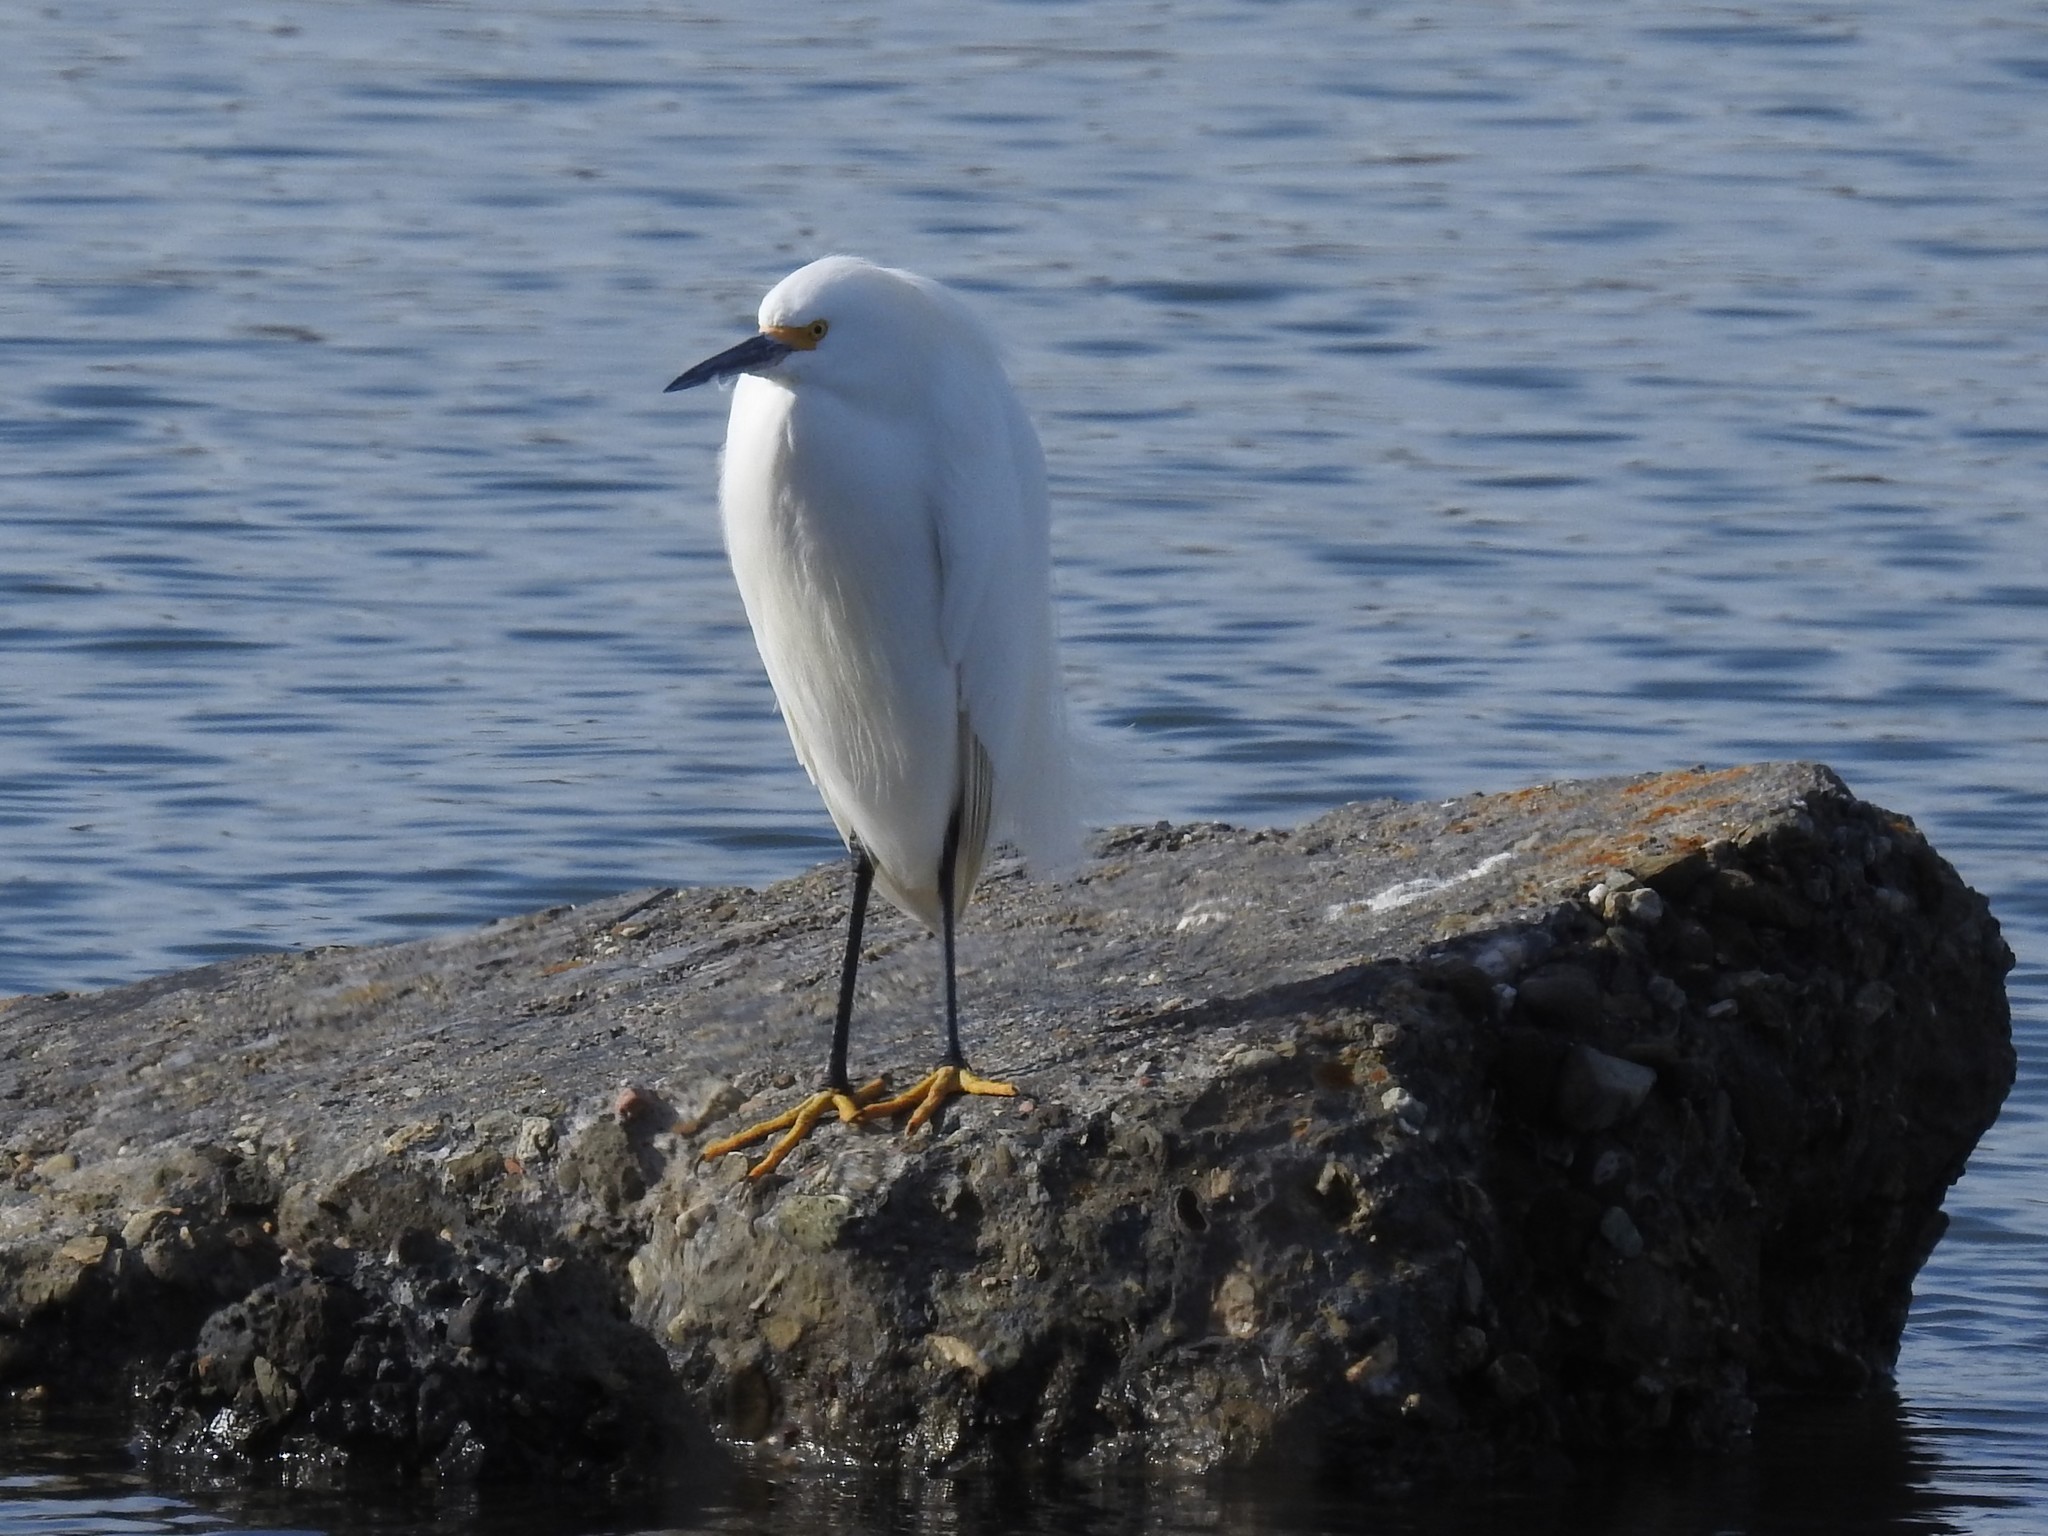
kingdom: Animalia
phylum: Chordata
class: Aves
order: Pelecaniformes
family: Ardeidae
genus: Egretta
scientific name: Egretta thula
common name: Snowy egret
